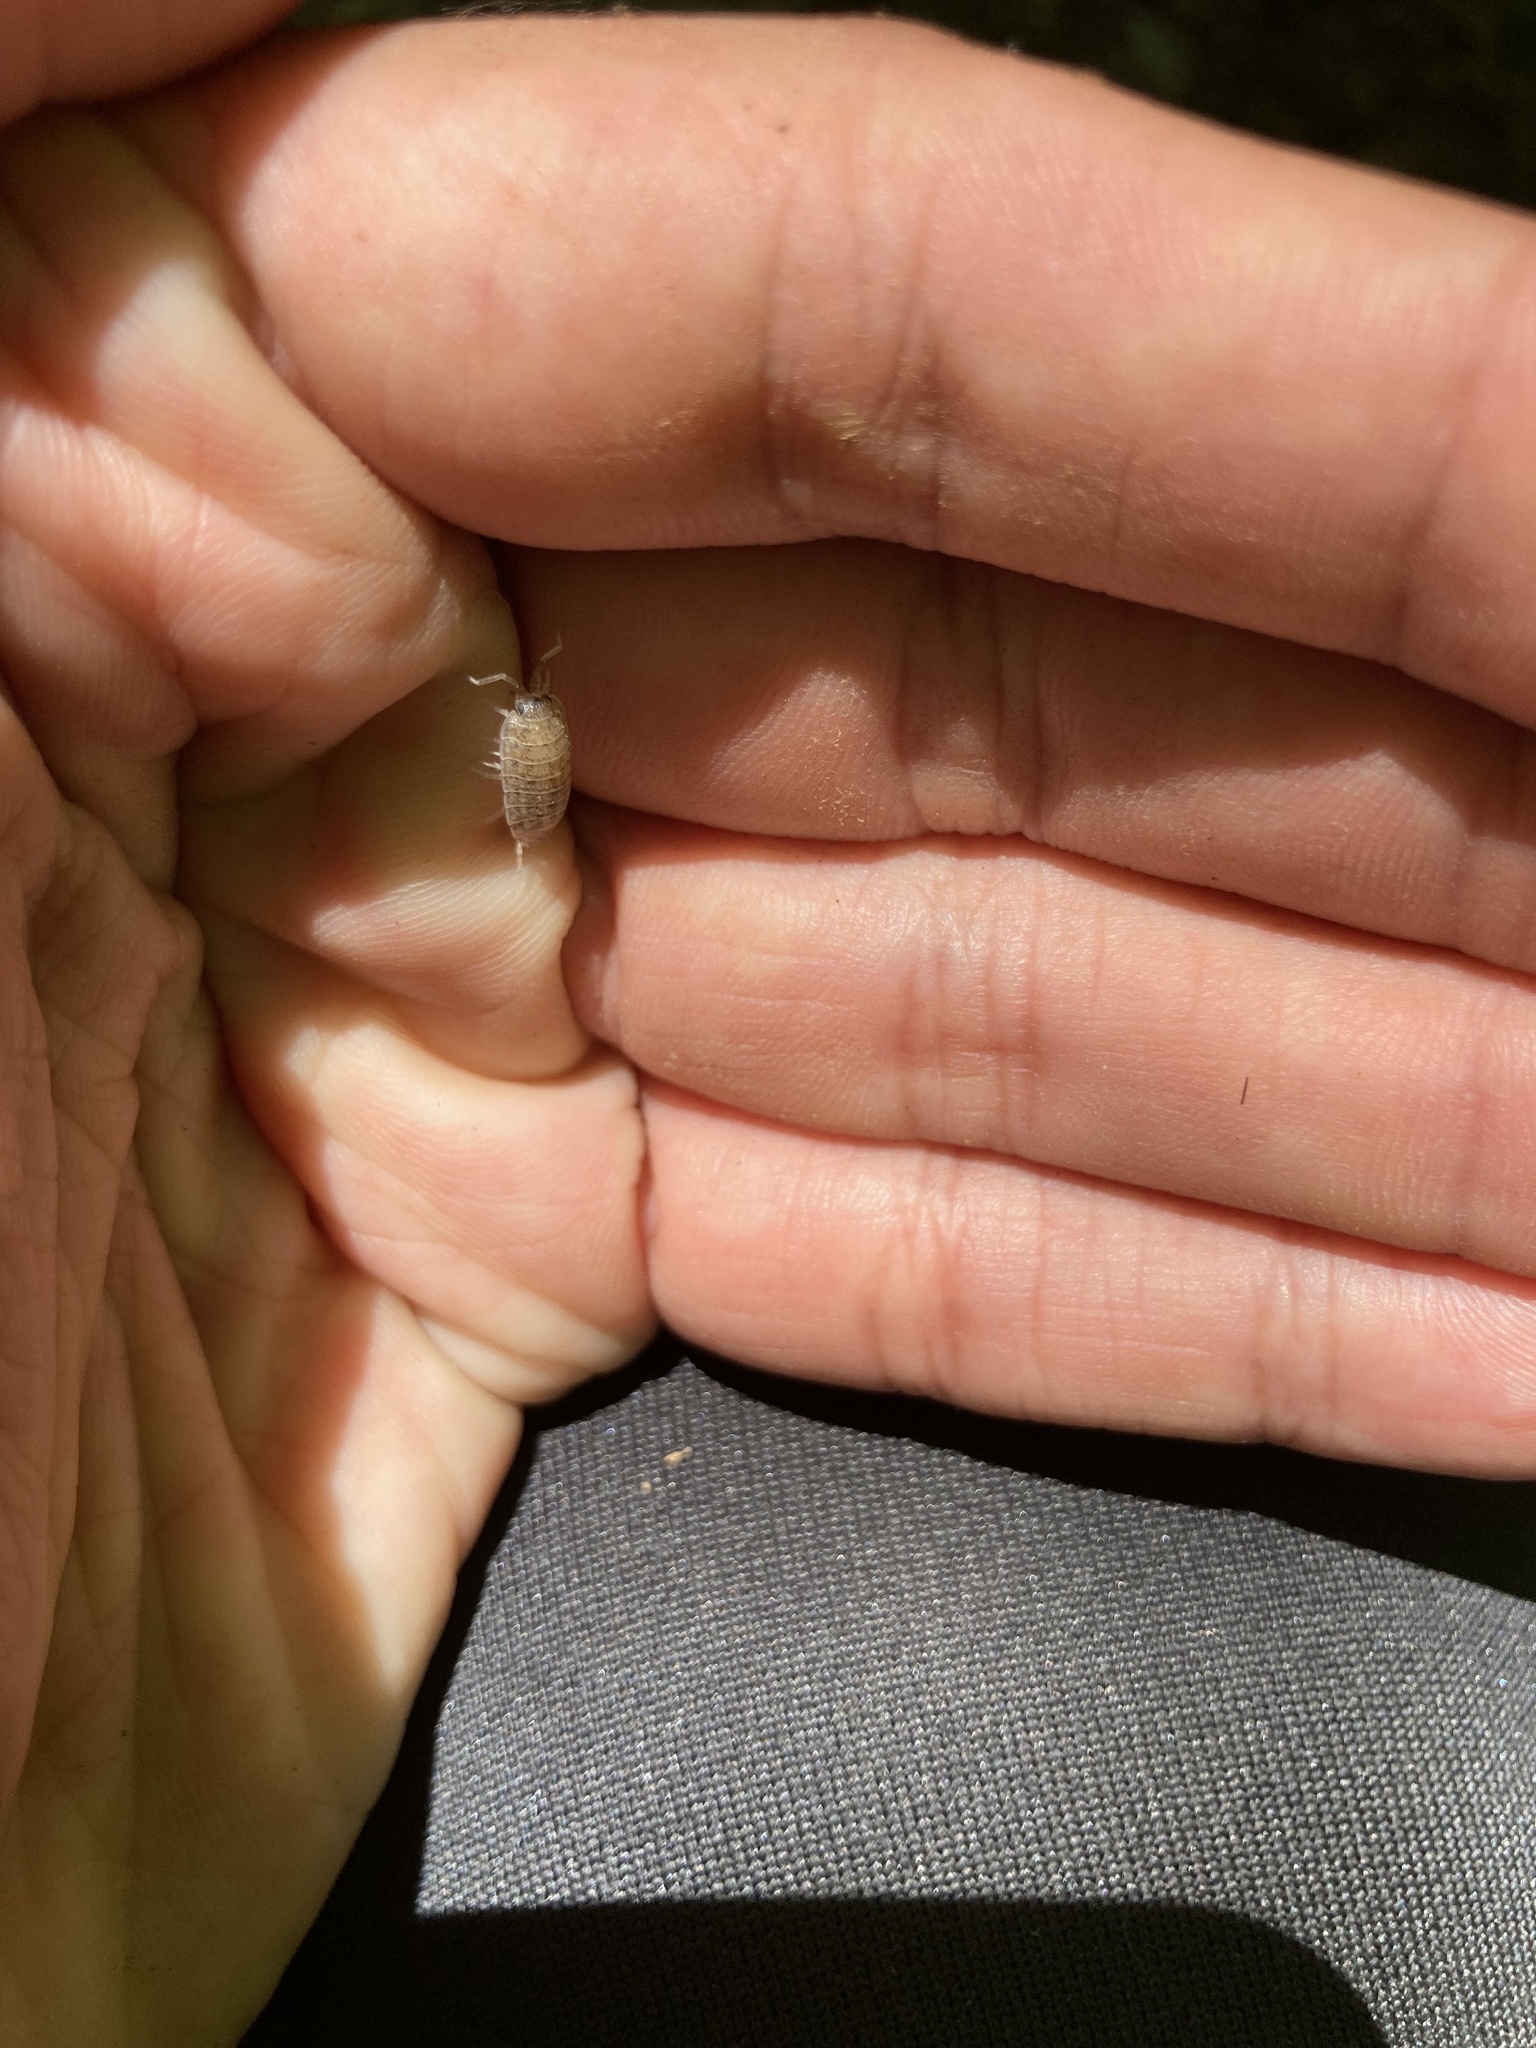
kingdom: Animalia
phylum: Arthropoda
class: Malacostraca
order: Isopoda
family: Trachelipodidae
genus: Trachelipus
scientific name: Trachelipus rathkii
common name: Isopod
